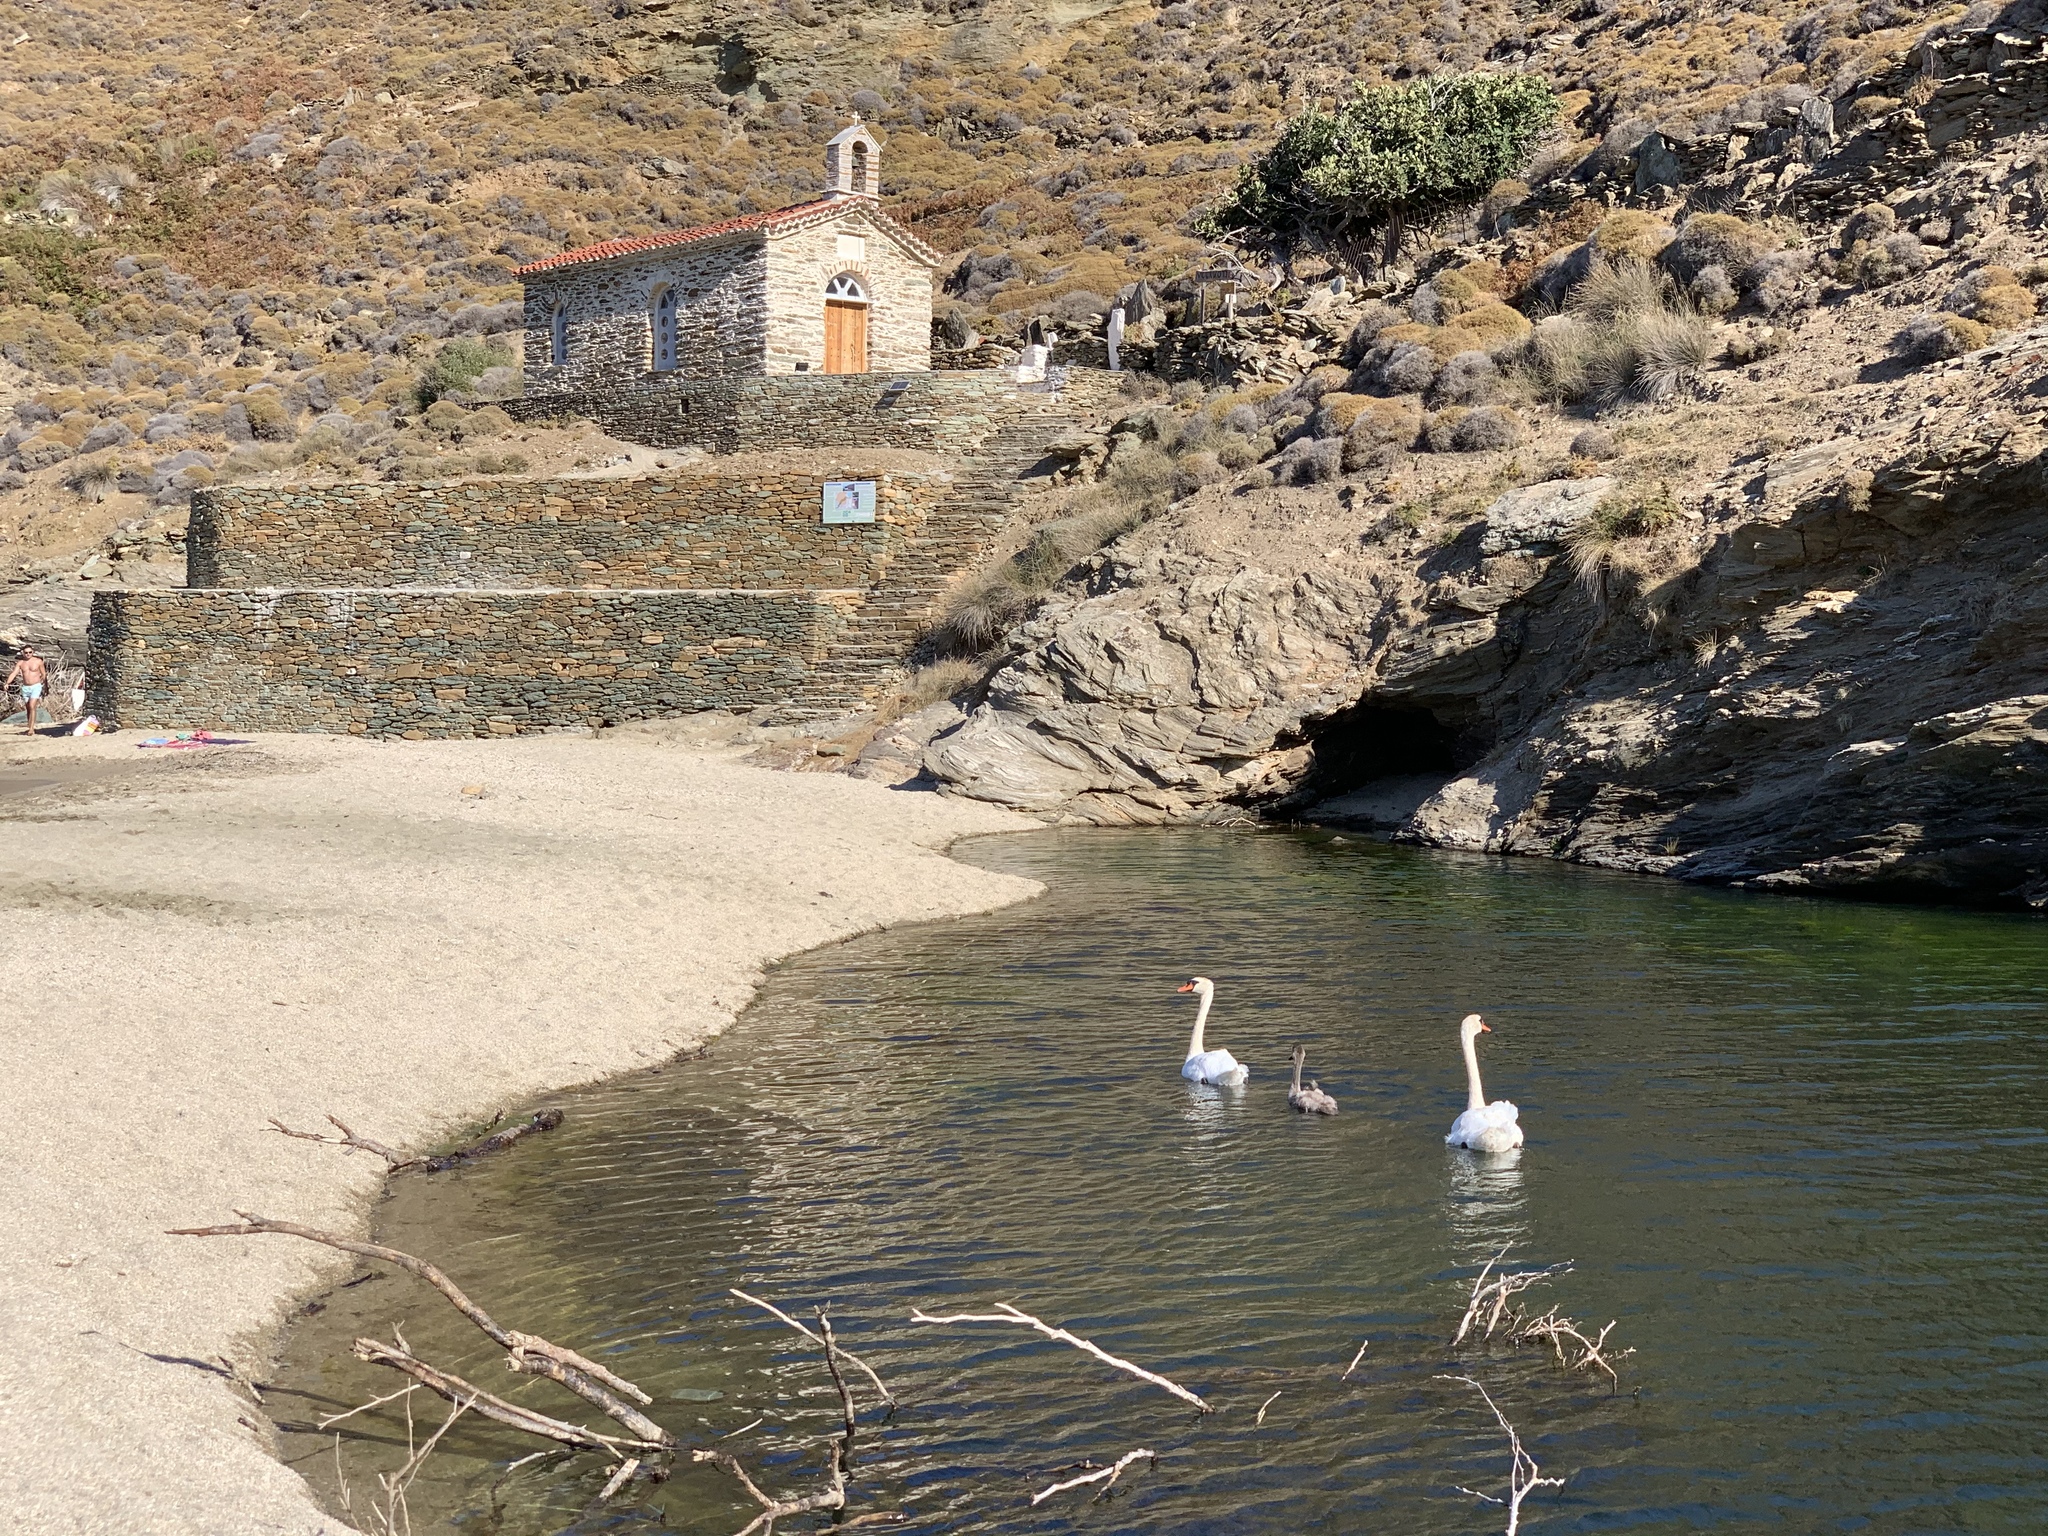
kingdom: Animalia
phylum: Chordata
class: Aves
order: Anseriformes
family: Anatidae
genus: Cygnus
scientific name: Cygnus olor
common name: Mute swan
